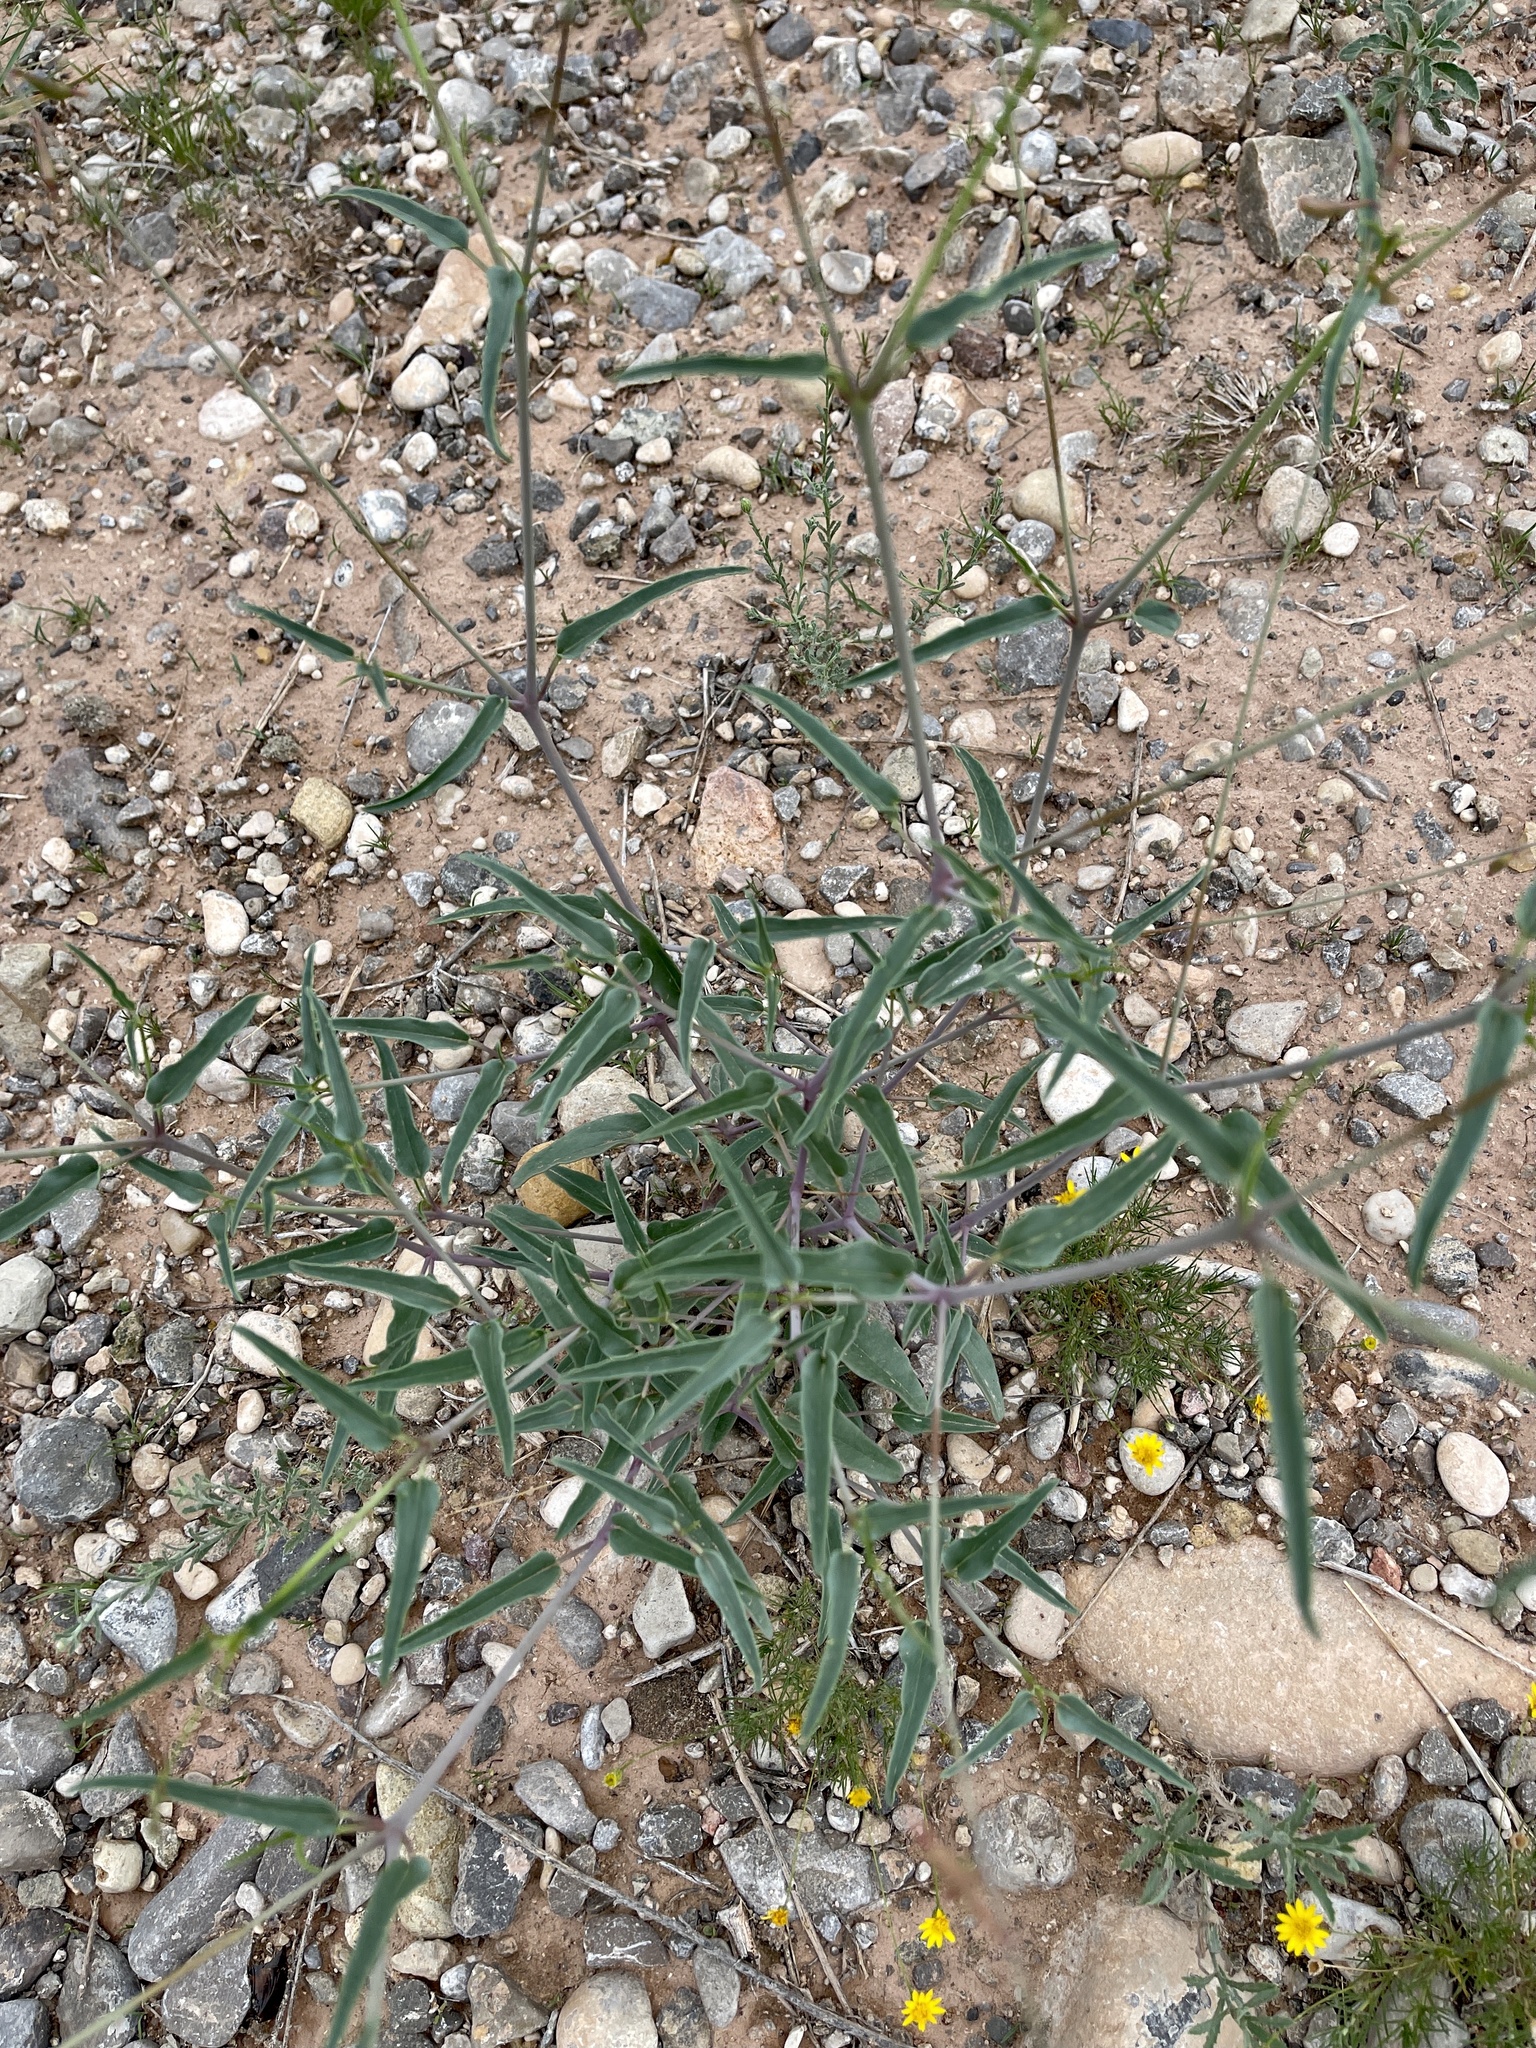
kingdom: Plantae
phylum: Tracheophyta
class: Magnoliopsida
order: Caryophyllales
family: Nyctaginaceae
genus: Mirabilis
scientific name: Mirabilis linearis
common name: Linear-leaved four-o'clock
